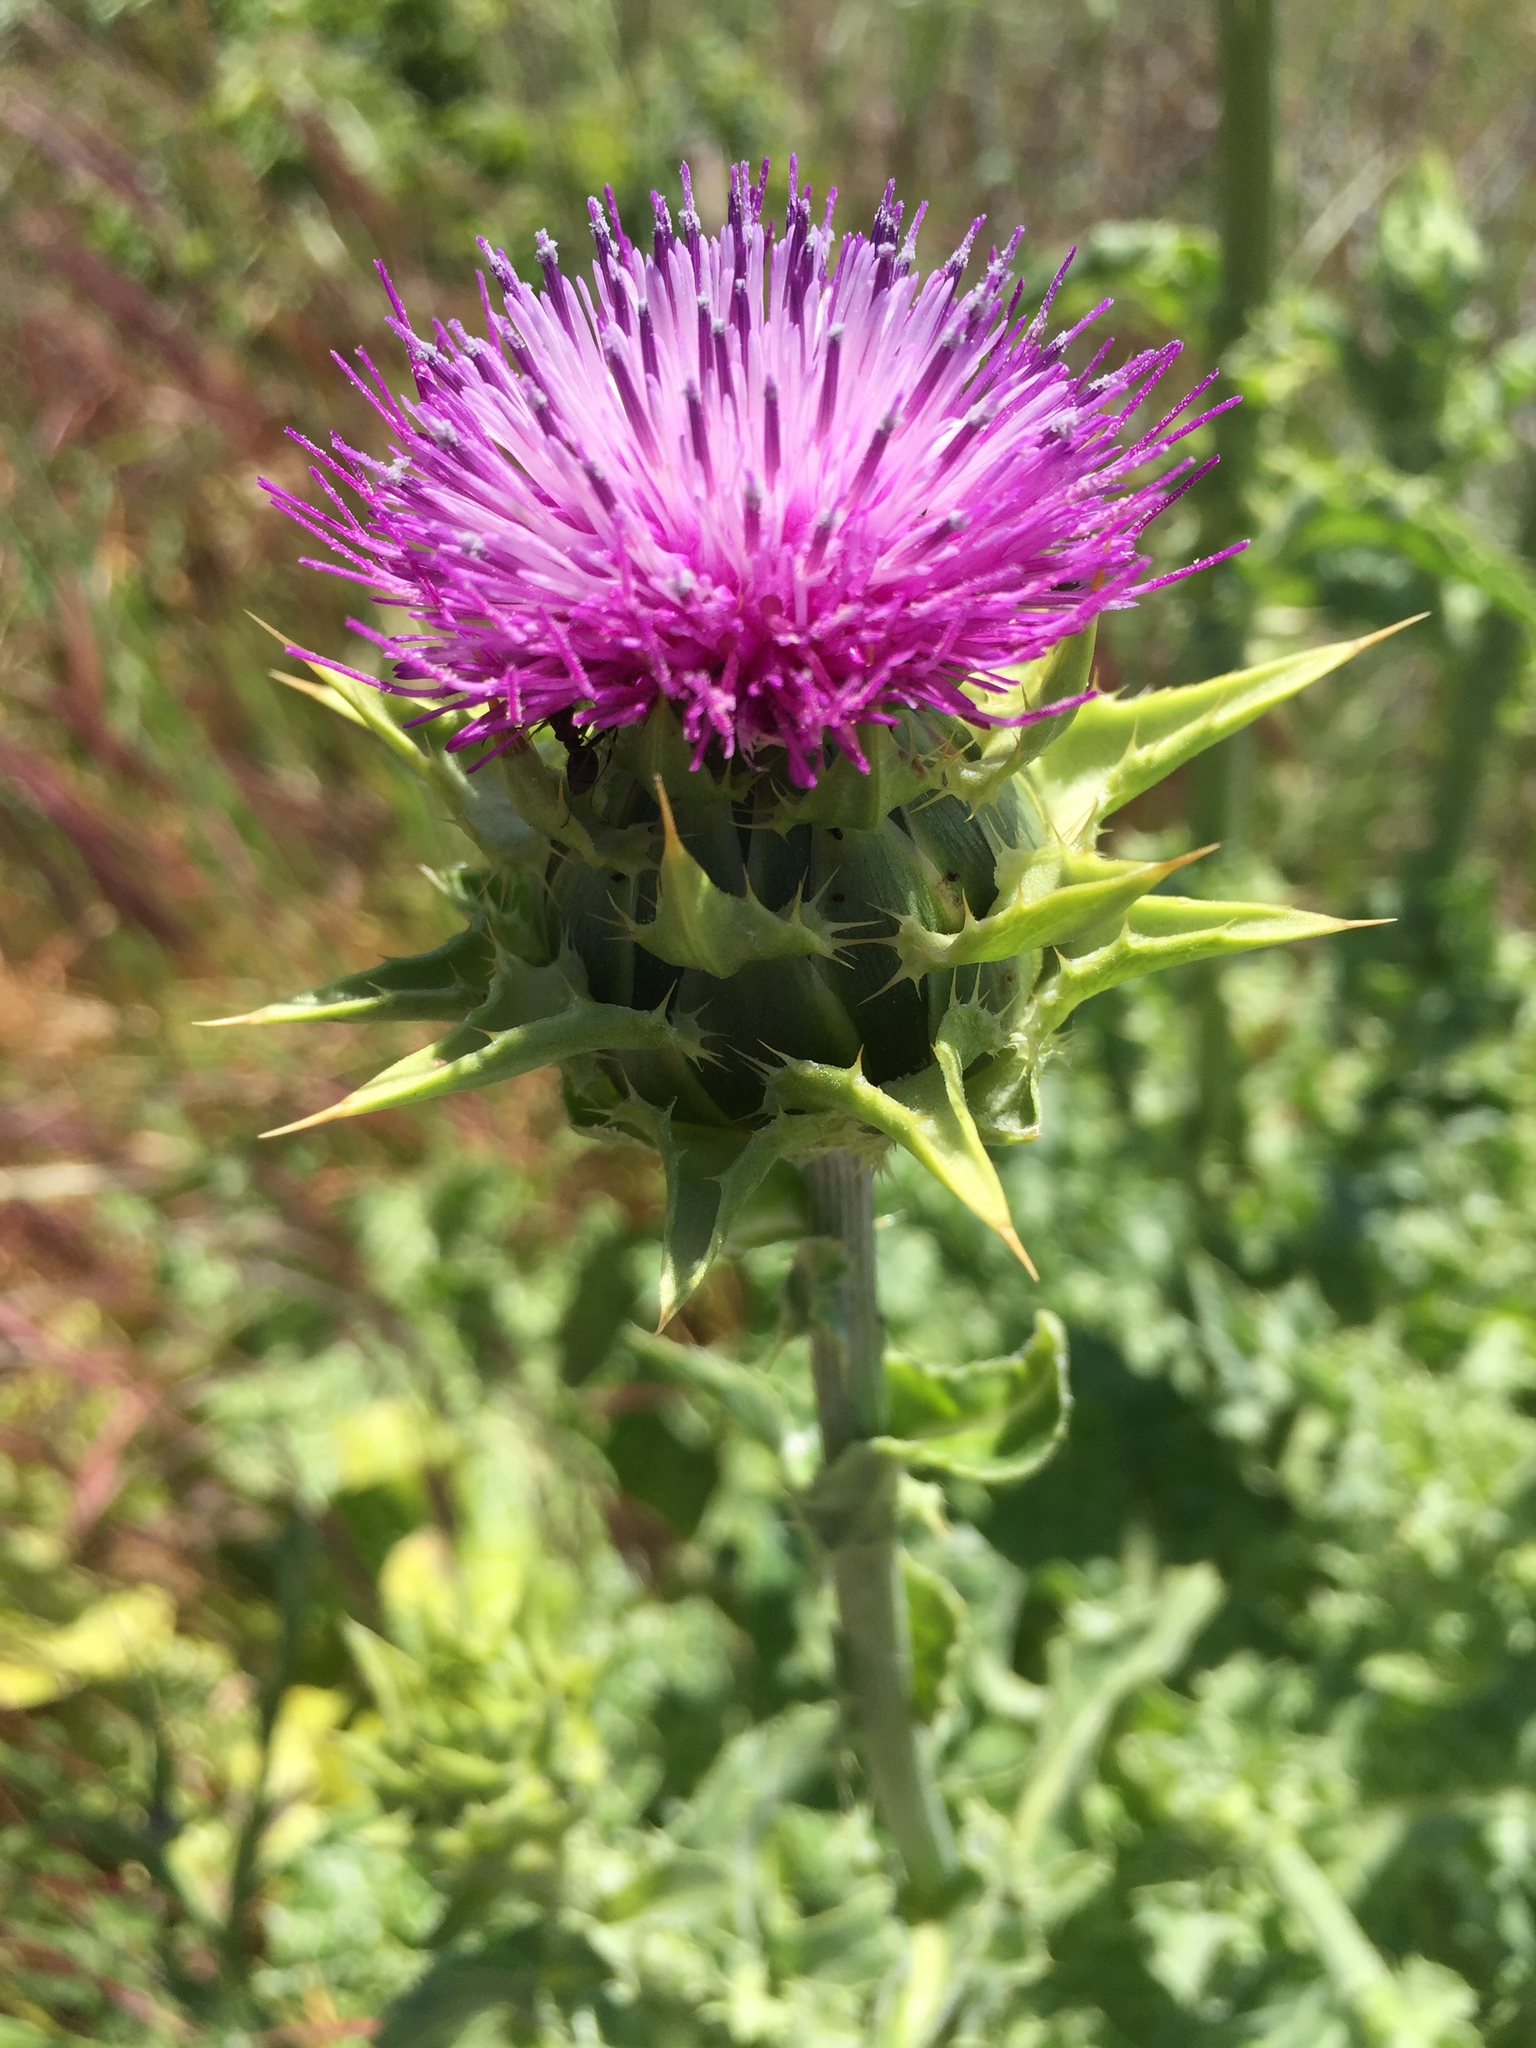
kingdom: Plantae
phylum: Tracheophyta
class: Magnoliopsida
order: Asterales
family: Asteraceae
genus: Silybum
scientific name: Silybum marianum
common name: Milk thistle
